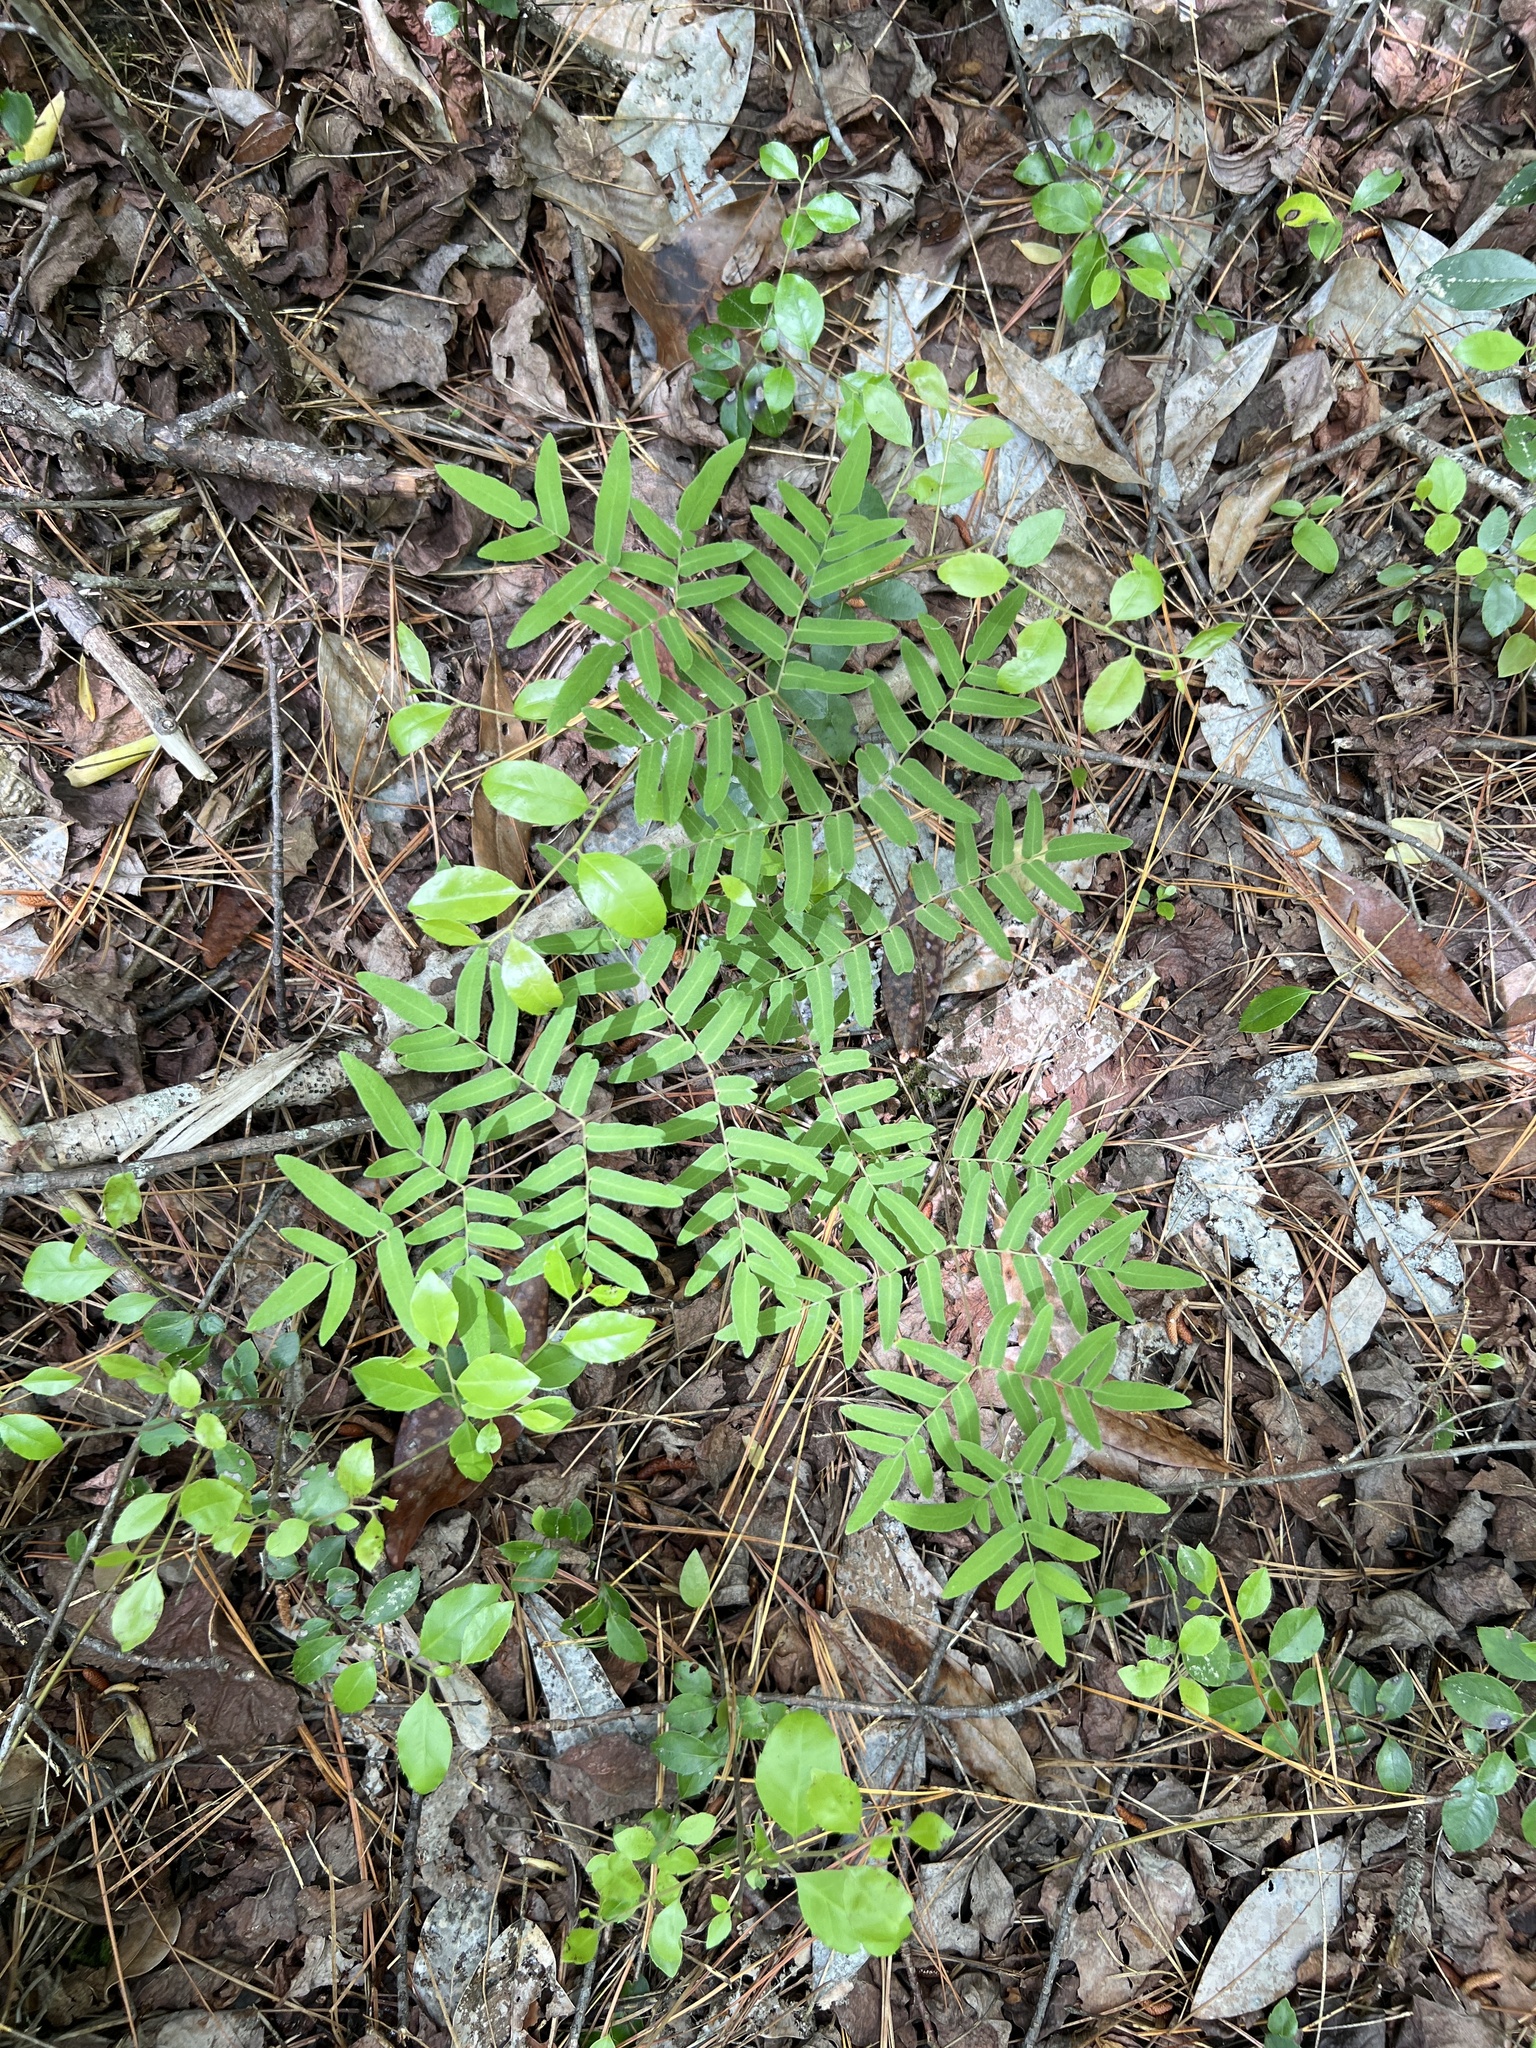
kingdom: Plantae
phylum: Tracheophyta
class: Polypodiopsida
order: Osmundales
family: Osmundaceae
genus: Osmunda
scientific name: Osmunda spectabilis
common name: American royal fern
